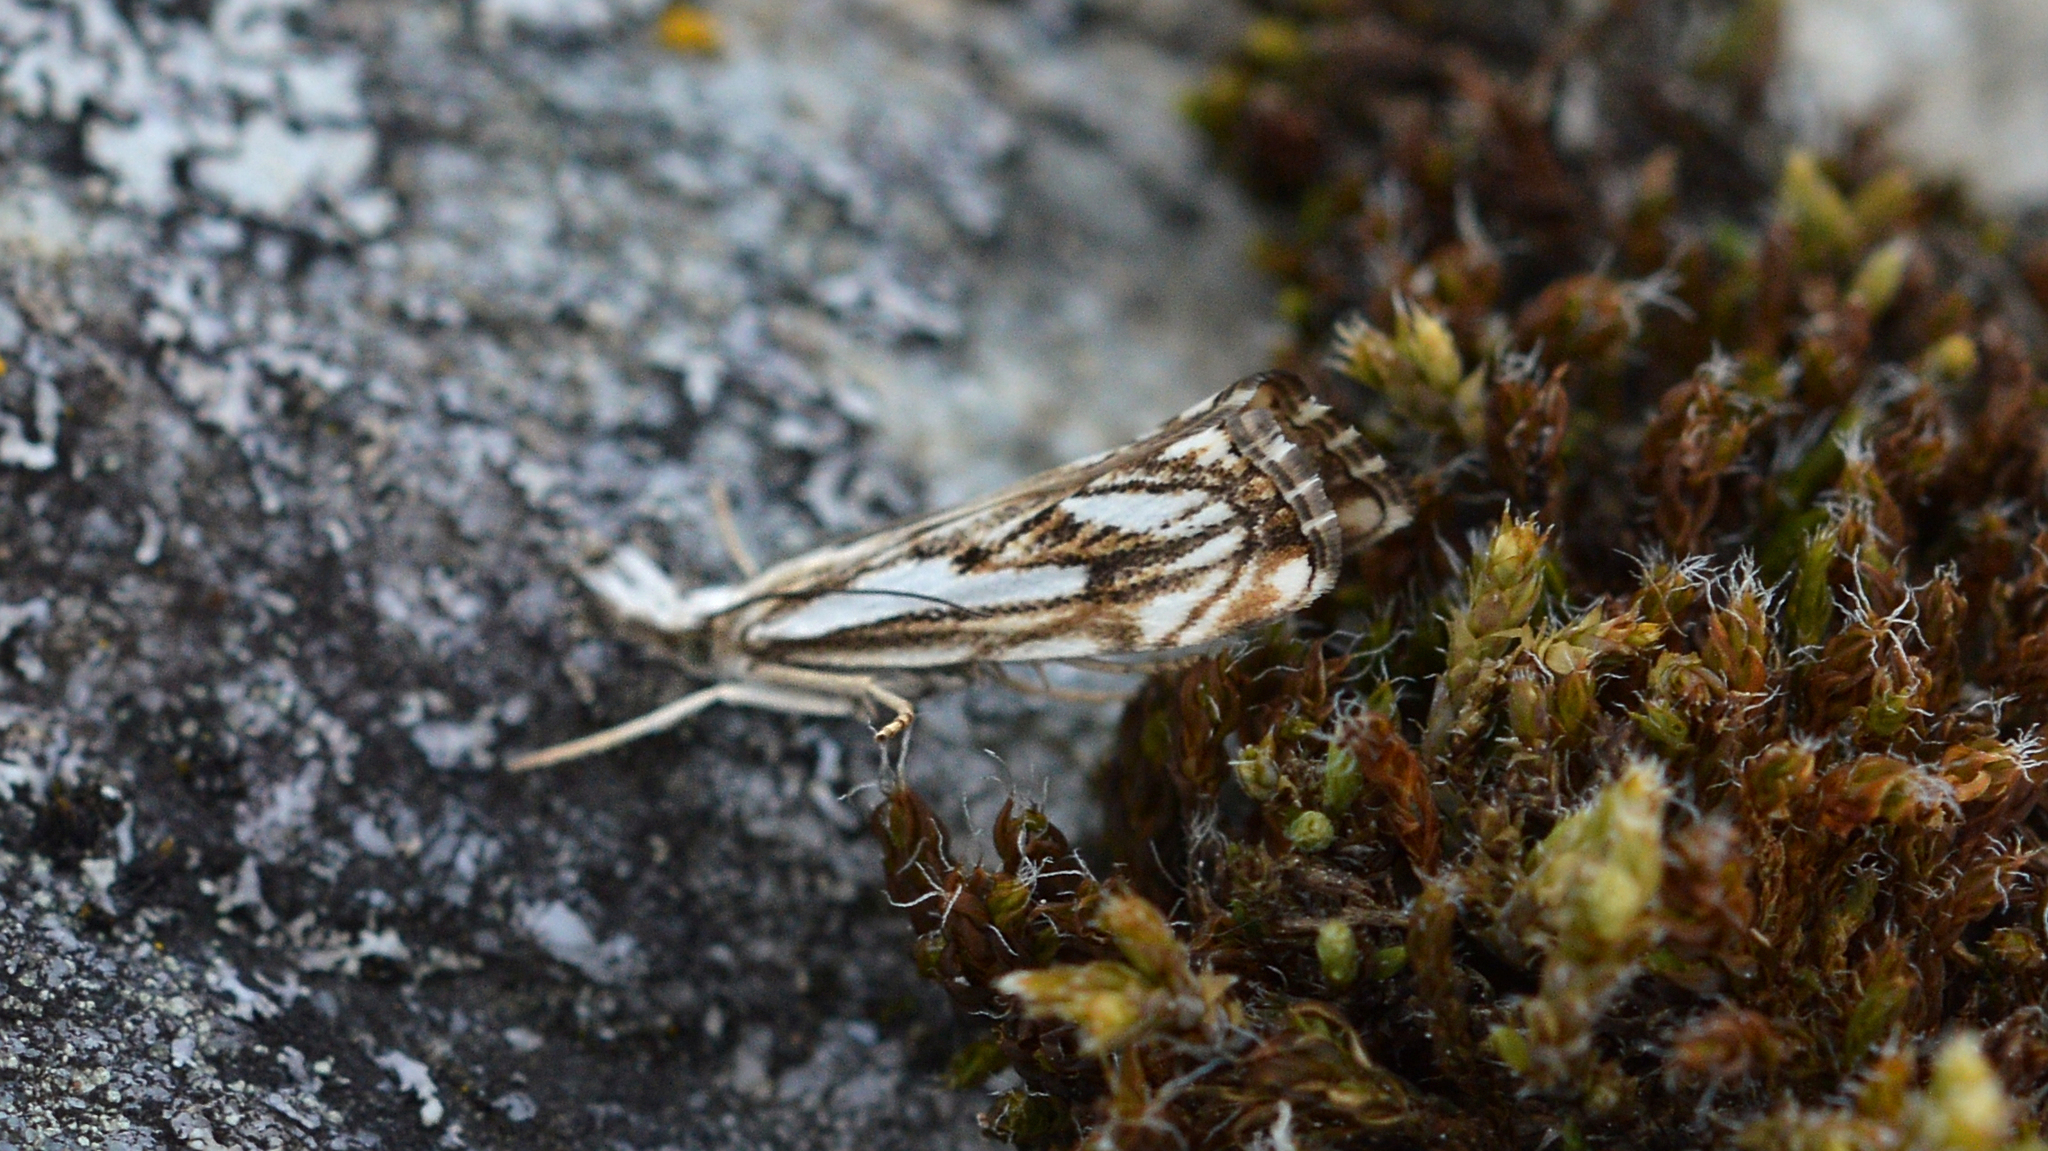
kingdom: Animalia
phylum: Arthropoda
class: Insecta
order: Lepidoptera
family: Crambidae
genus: Catoptria
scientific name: Catoptria falsella
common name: Chequered grass-veneer
